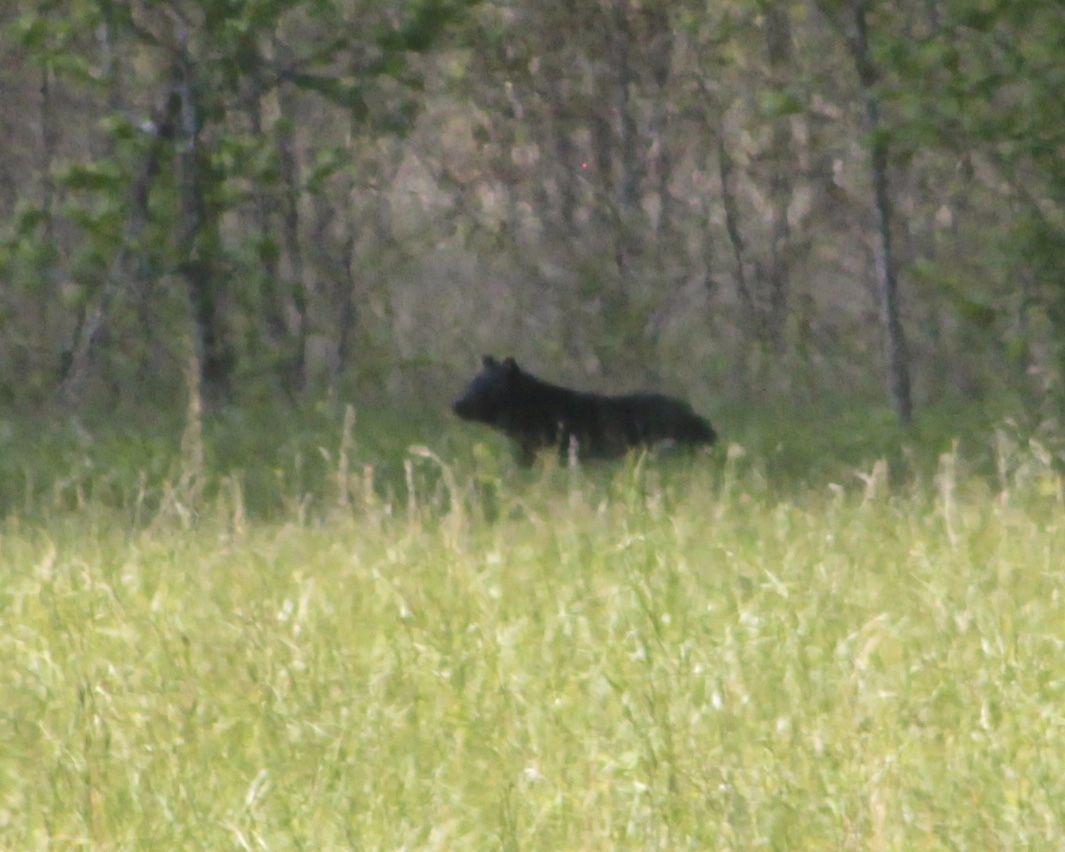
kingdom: Animalia
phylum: Chordata
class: Mammalia
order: Carnivora
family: Ursidae
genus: Ursus
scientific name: Ursus americanus
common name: American black bear
